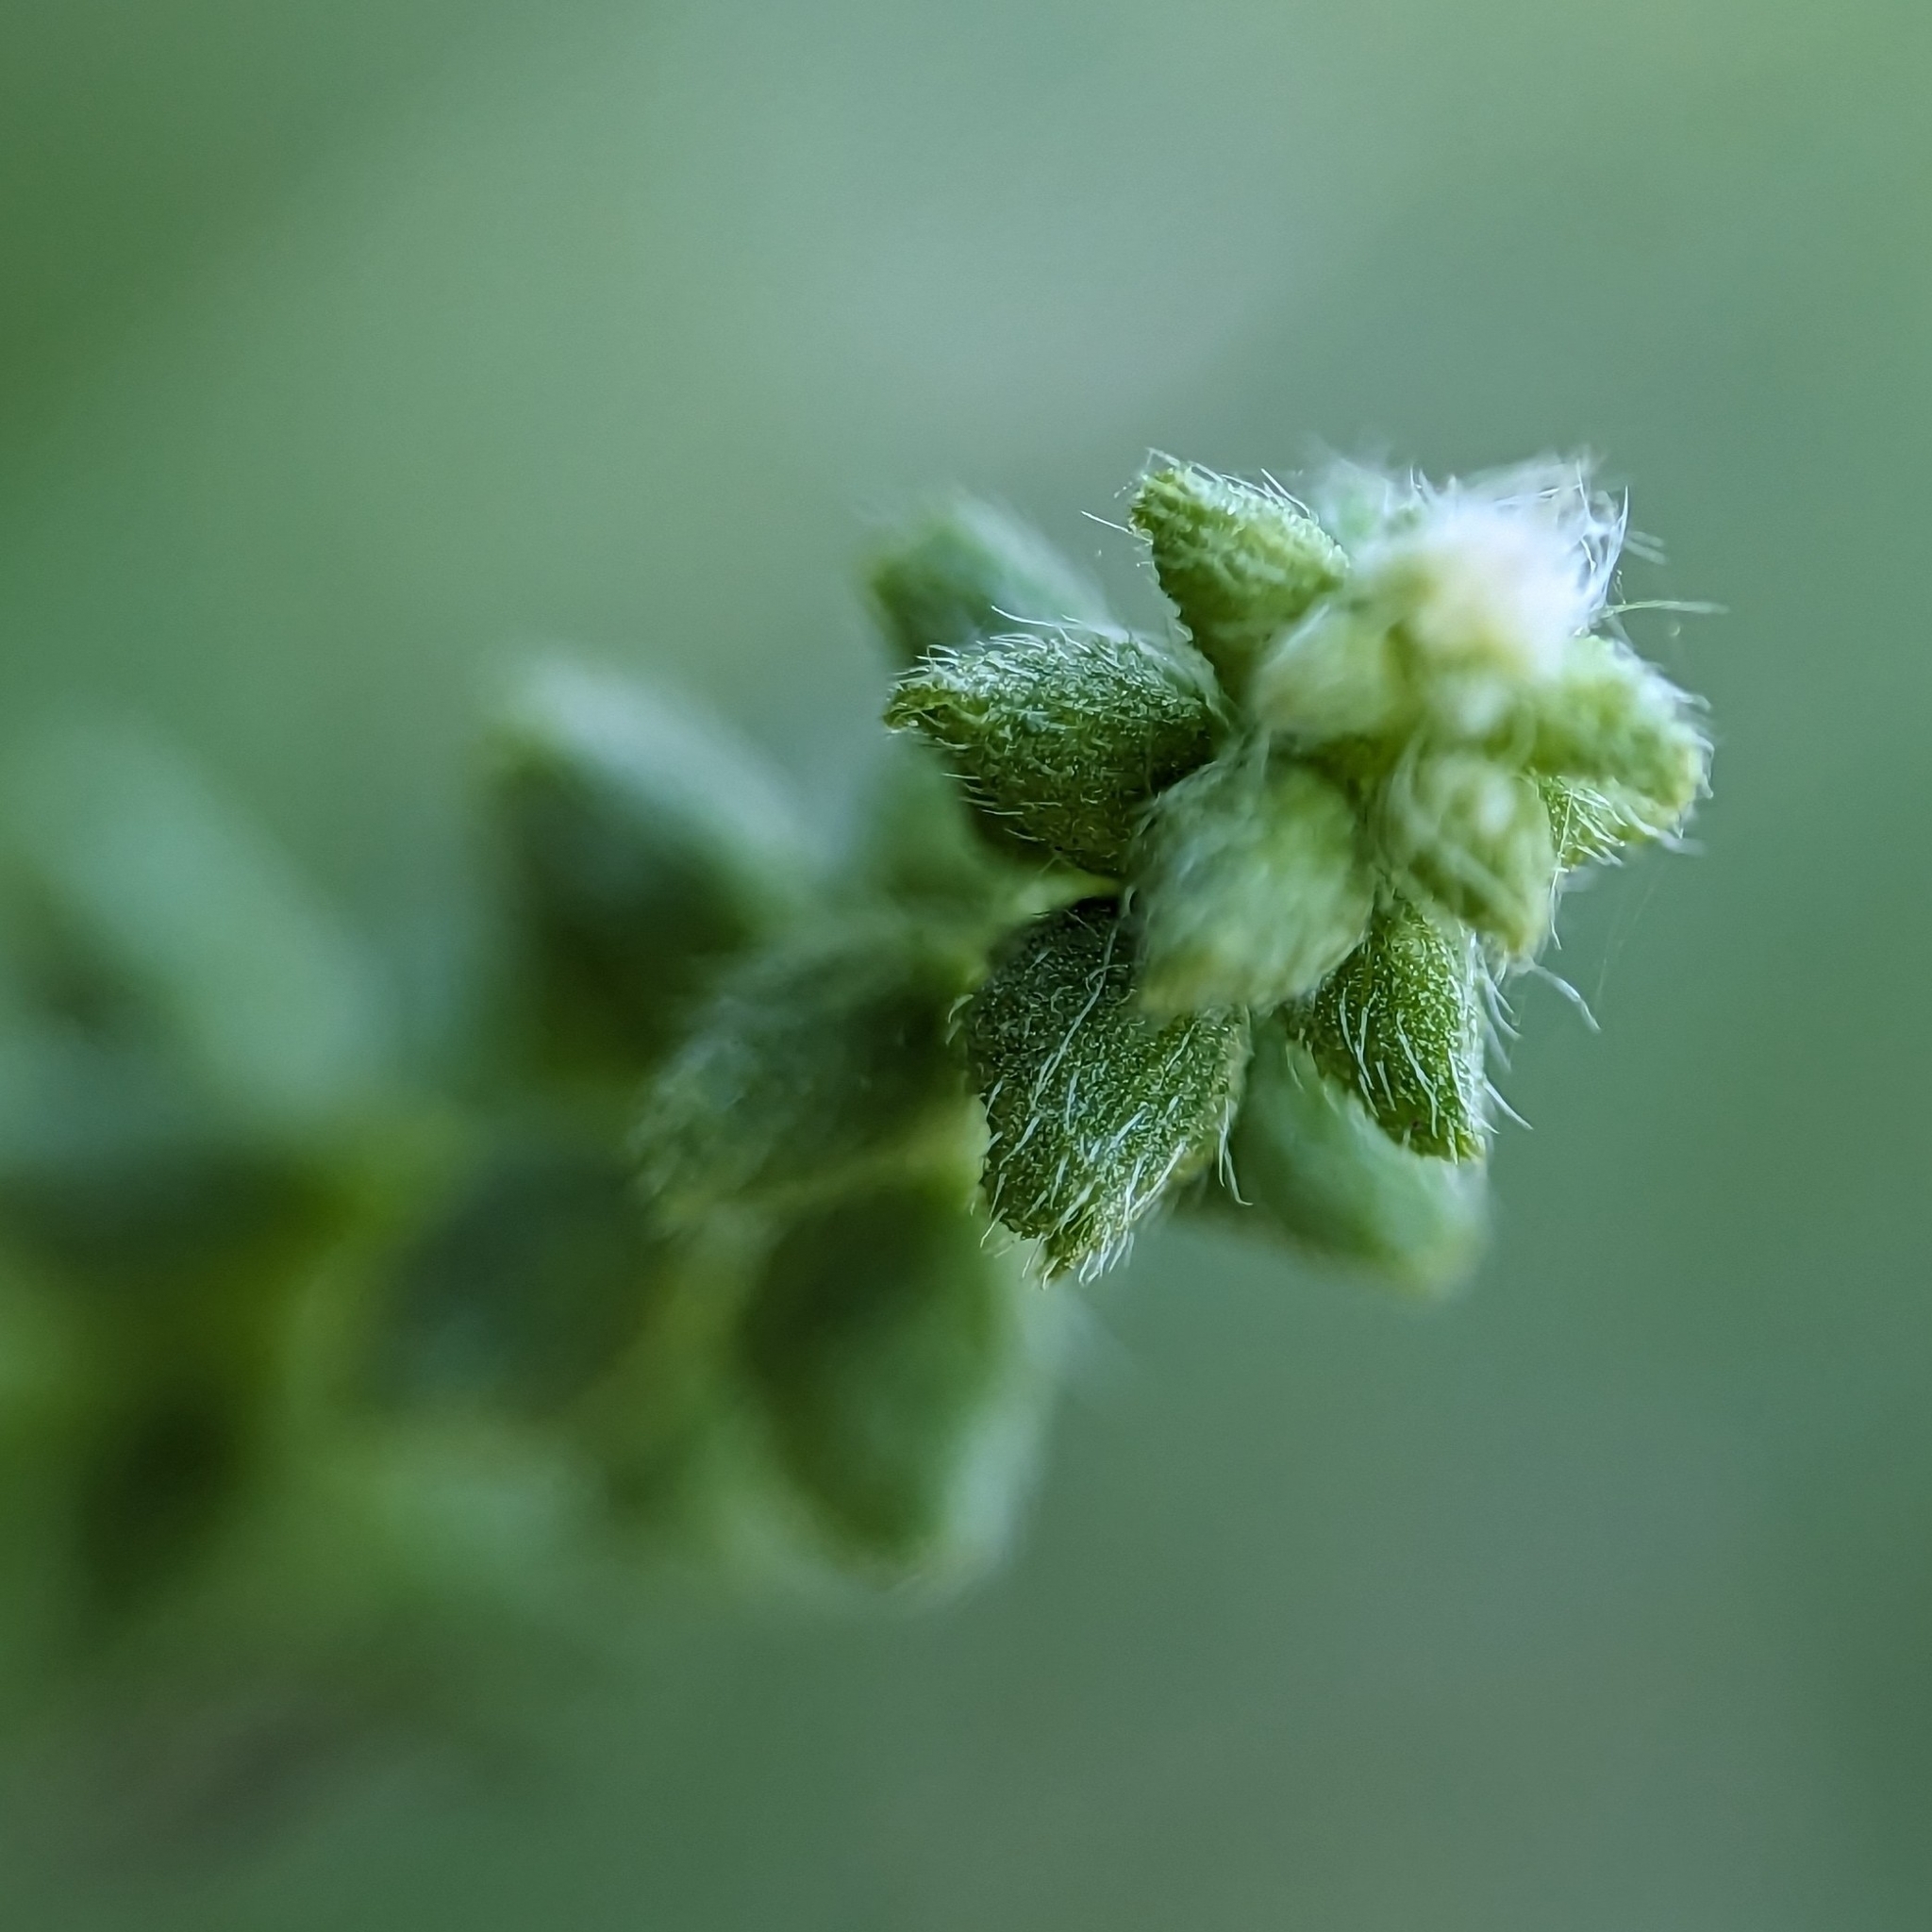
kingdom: Plantae
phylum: Tracheophyta
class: Magnoliopsida
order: Asterales
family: Asteraceae
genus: Ambrosia
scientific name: Ambrosia artemisiifolia
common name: Annual ragweed
